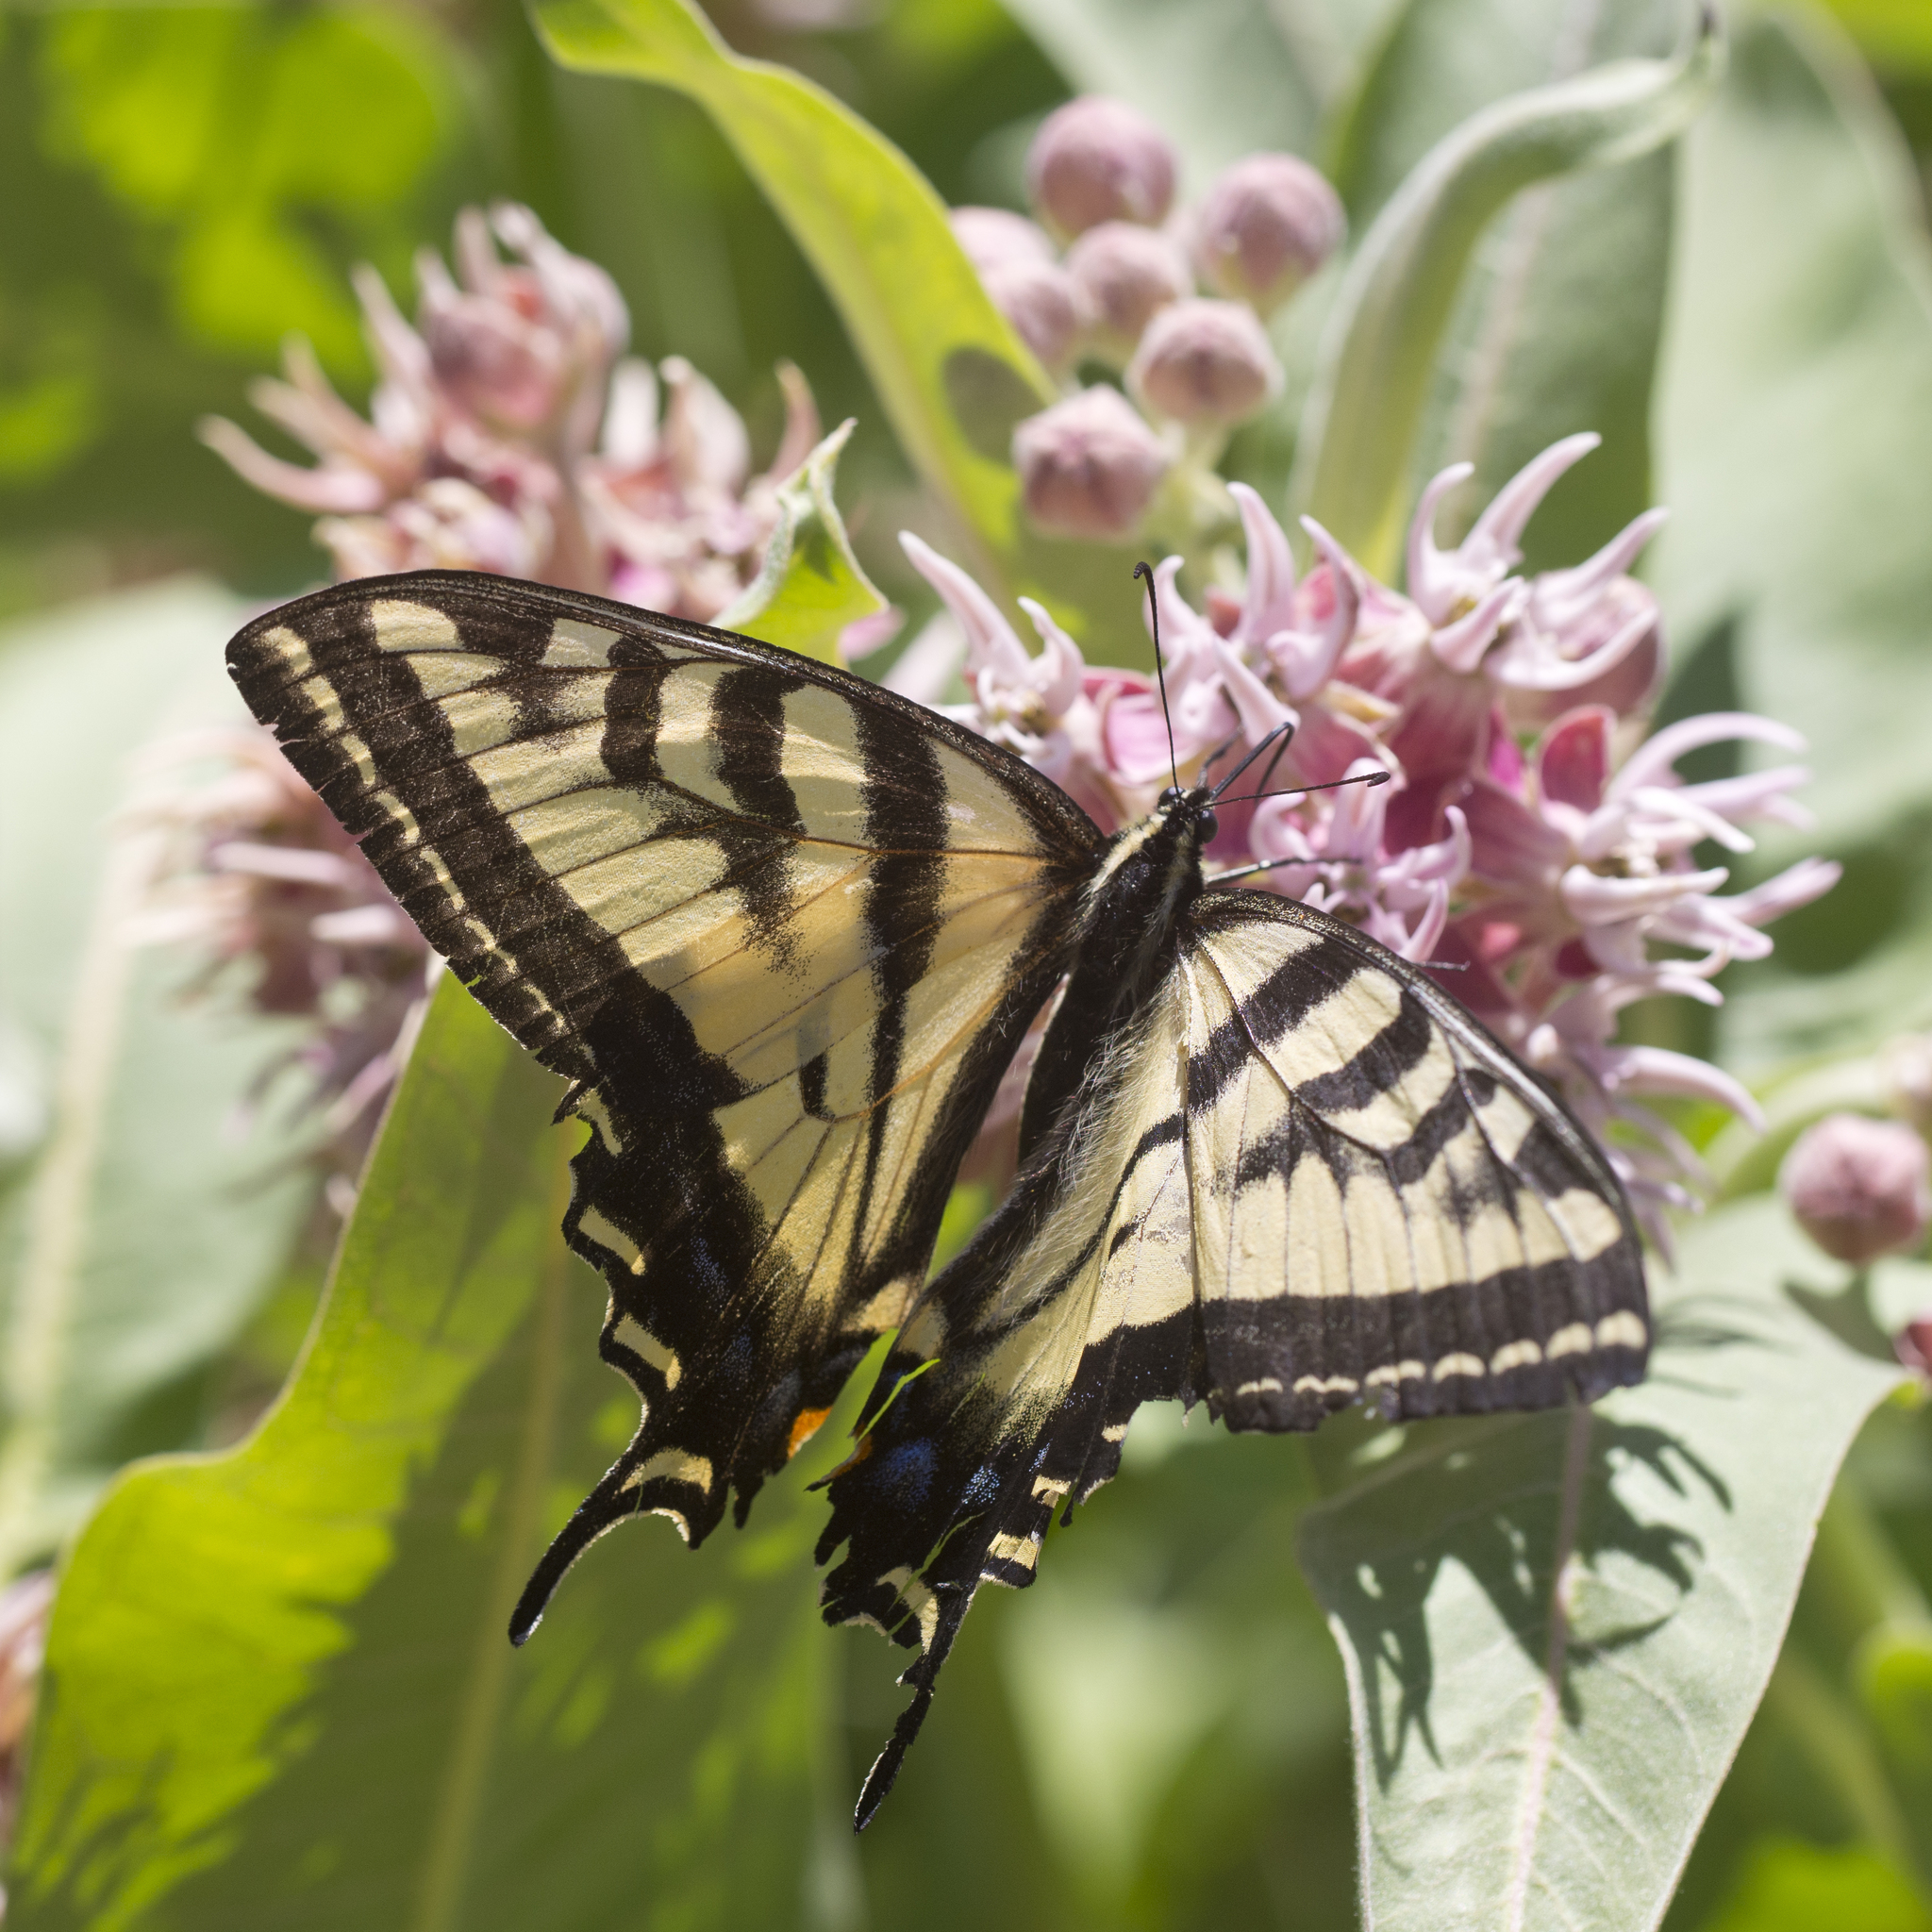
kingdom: Animalia
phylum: Arthropoda
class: Insecta
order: Lepidoptera
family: Papilionidae
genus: Papilio
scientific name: Papilio rutulus
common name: Western tiger swallowtail
